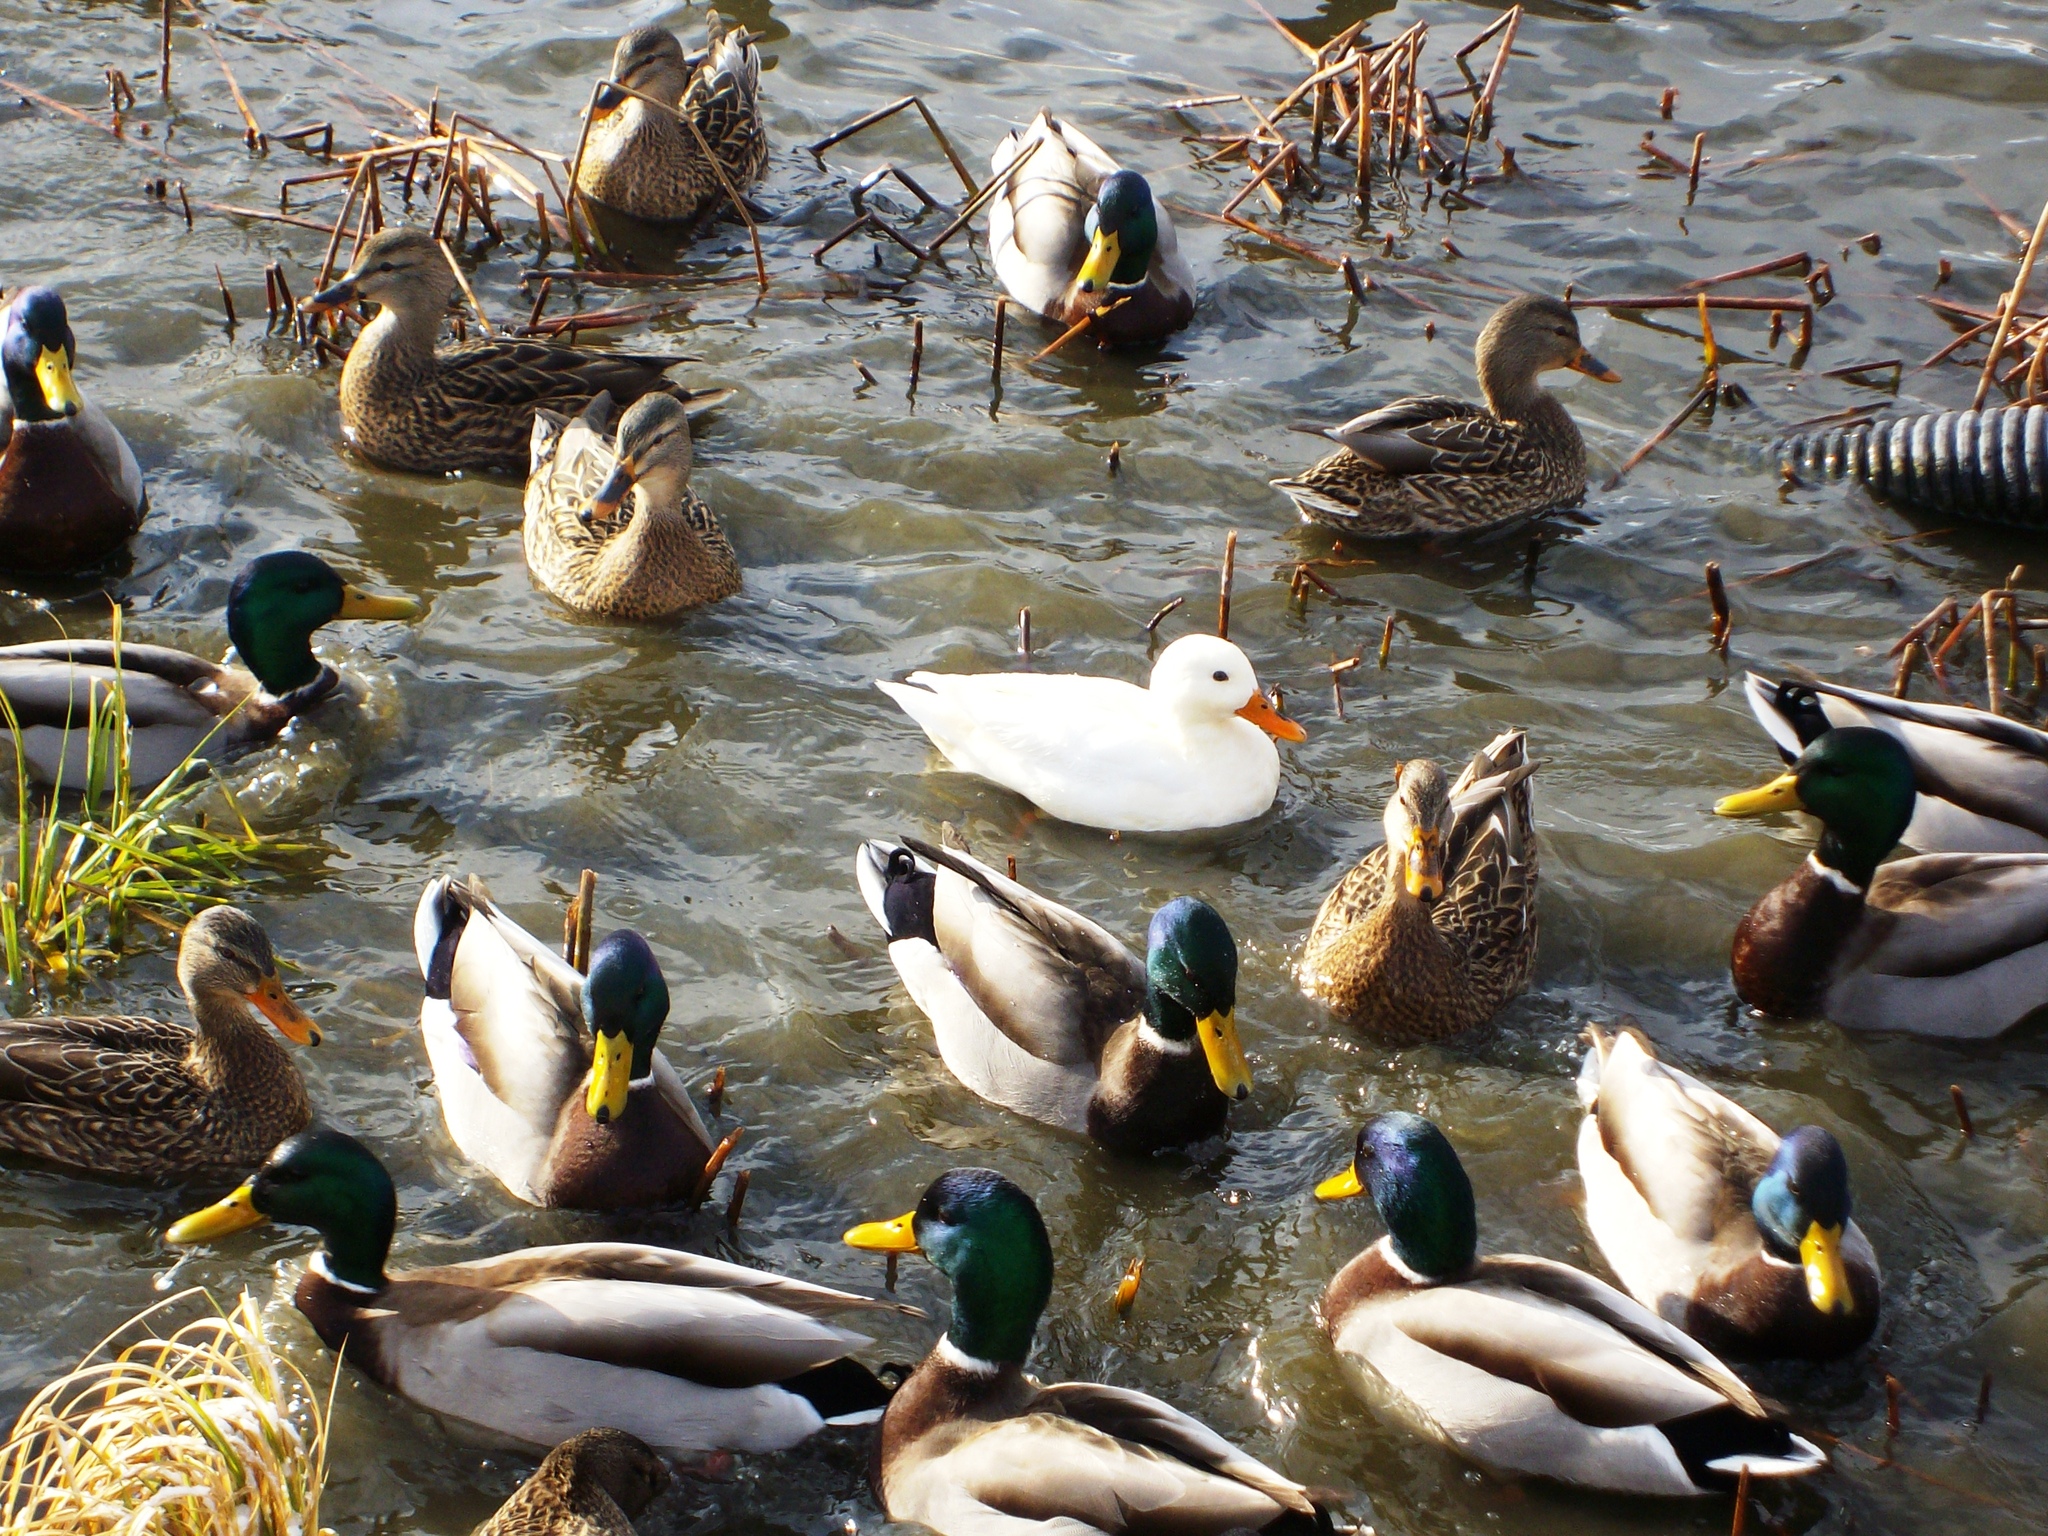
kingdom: Animalia
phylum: Chordata
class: Aves
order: Anseriformes
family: Anatidae
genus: Anas
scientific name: Anas platyrhynchos
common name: Mallard
